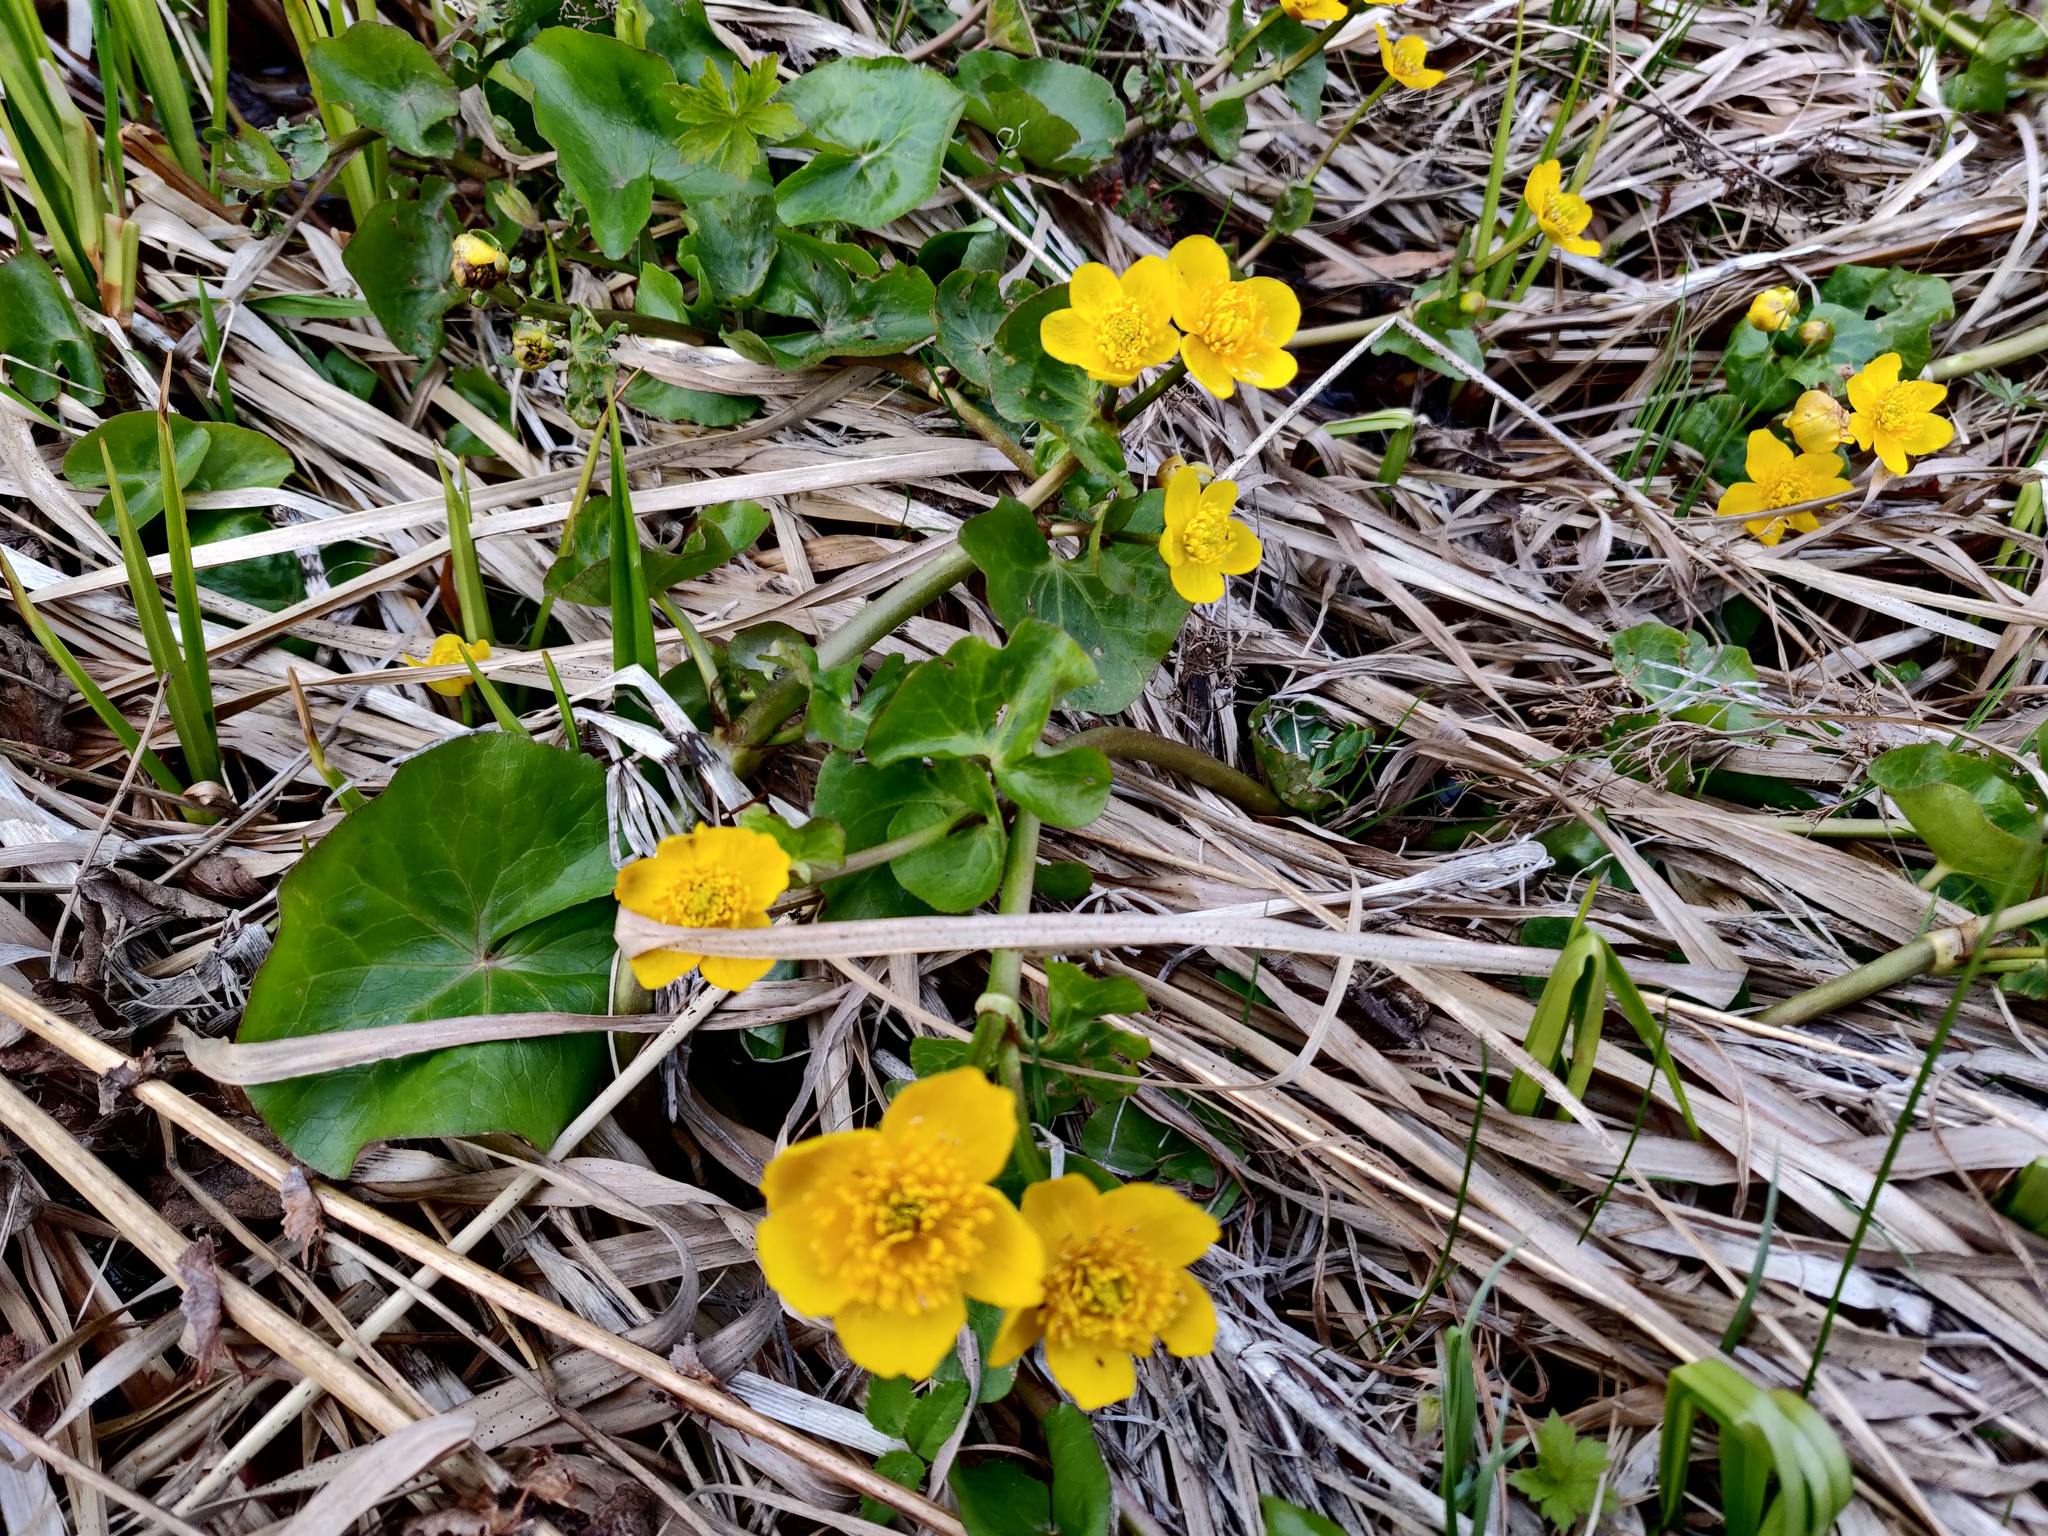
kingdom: Plantae
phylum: Tracheophyta
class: Magnoliopsida
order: Ranunculales
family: Ranunculaceae
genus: Caltha
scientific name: Caltha palustris
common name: Marsh marigold
